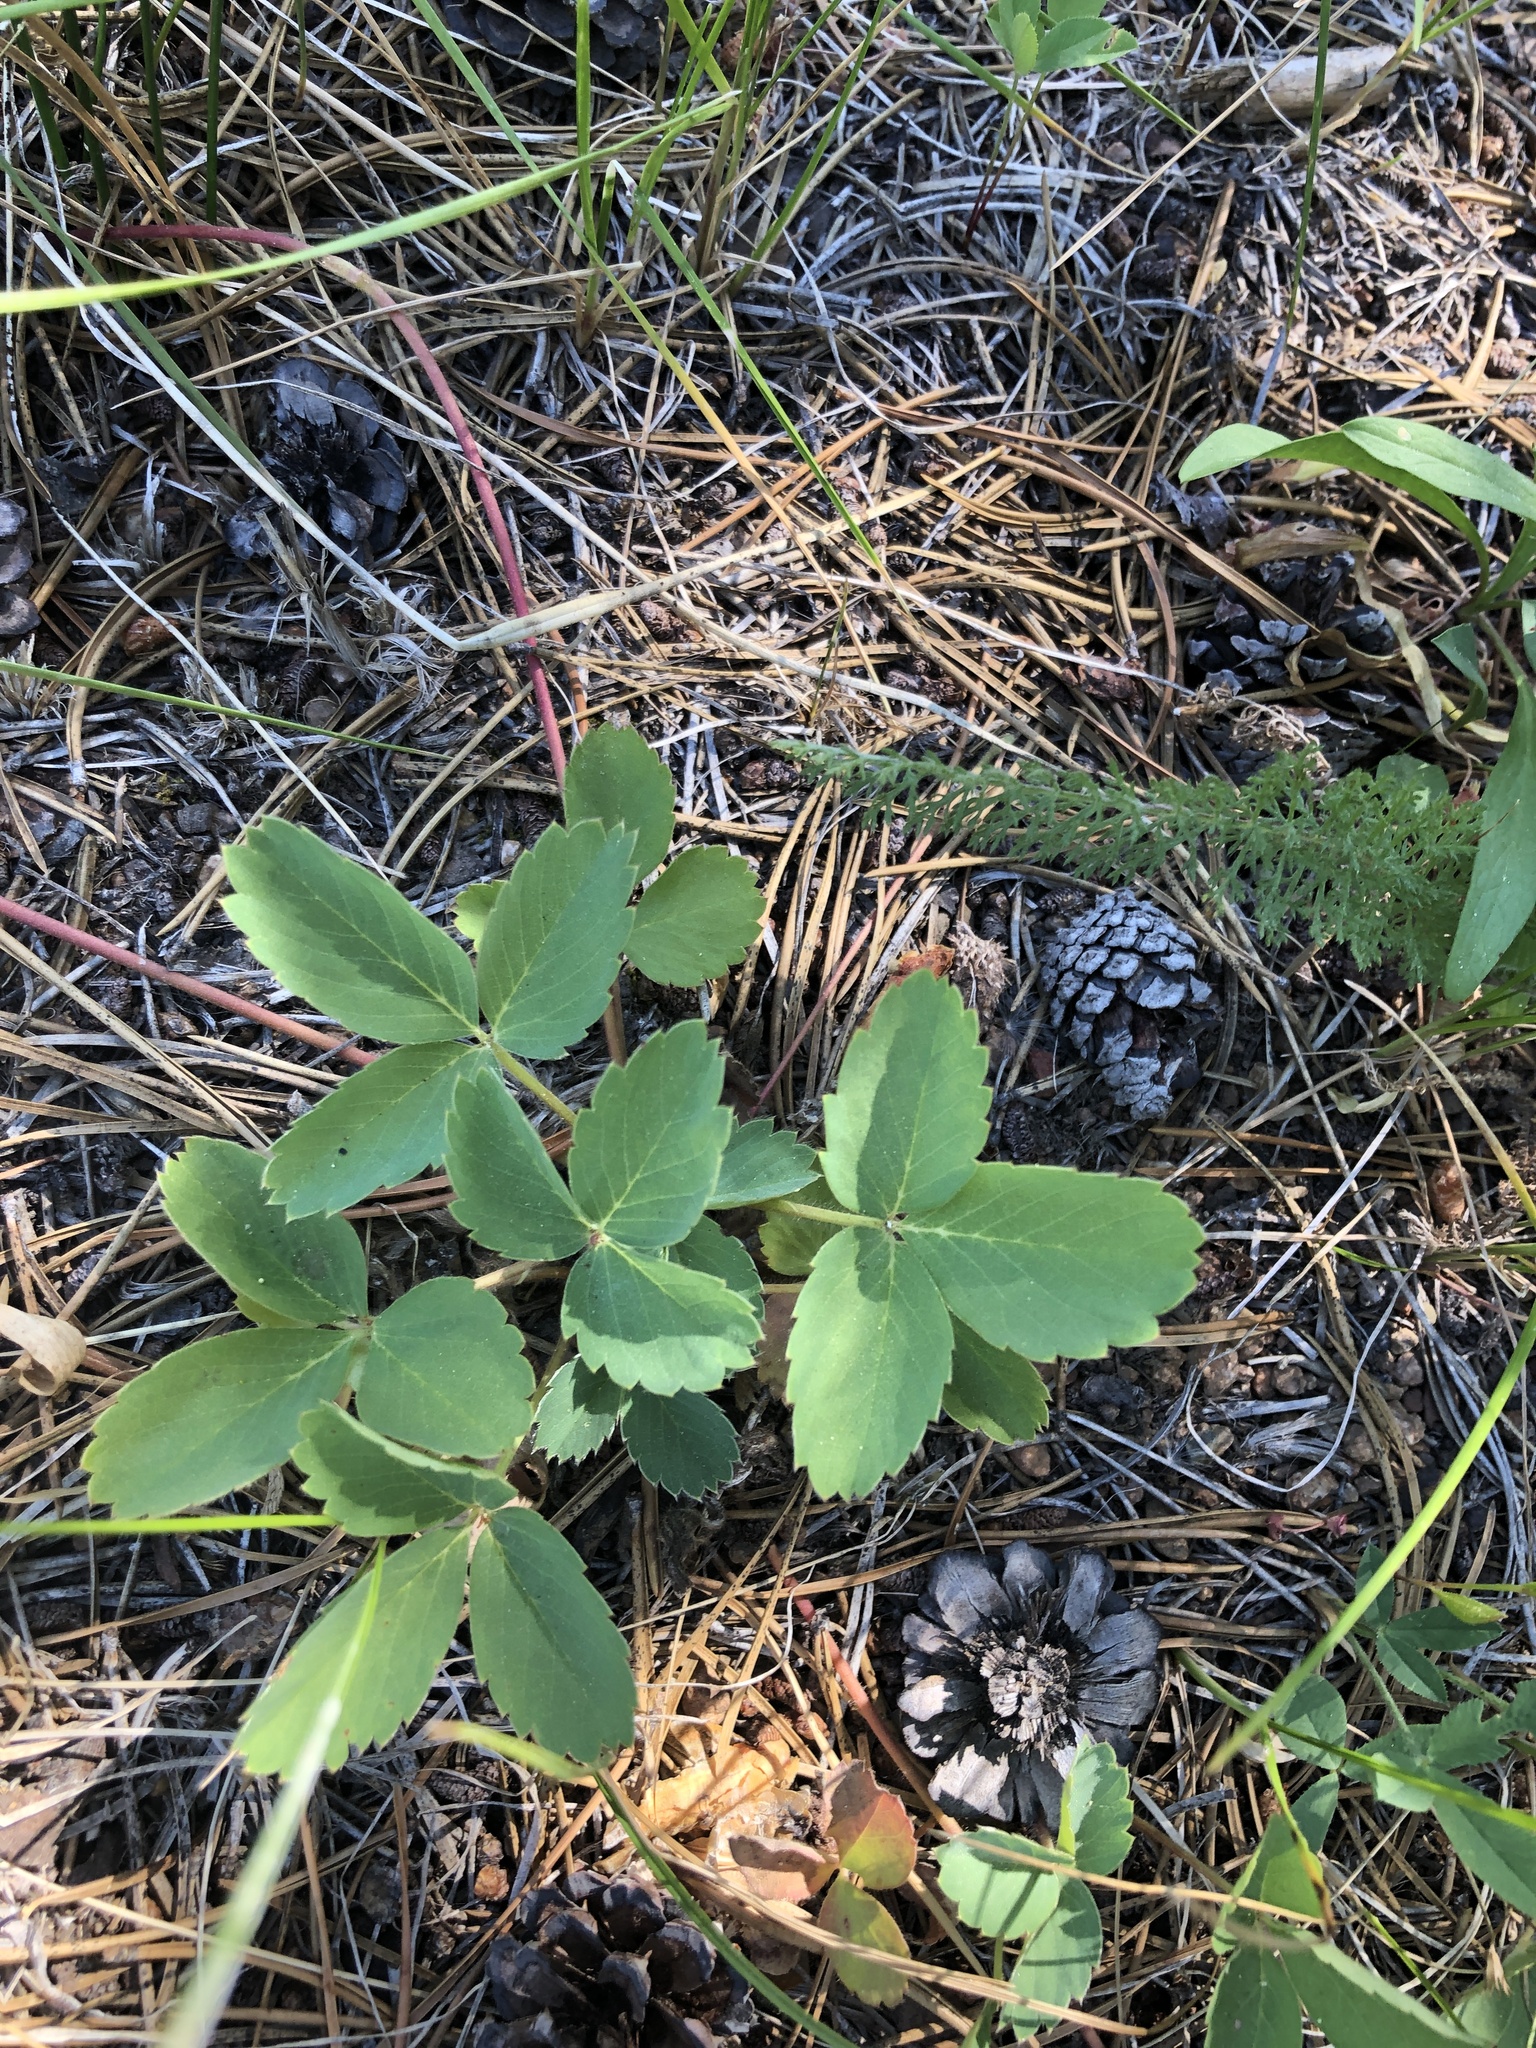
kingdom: Plantae
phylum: Tracheophyta
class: Magnoliopsida
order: Rosales
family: Rosaceae
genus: Fragaria
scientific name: Fragaria virginiana
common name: Thickleaved wild strawberry
